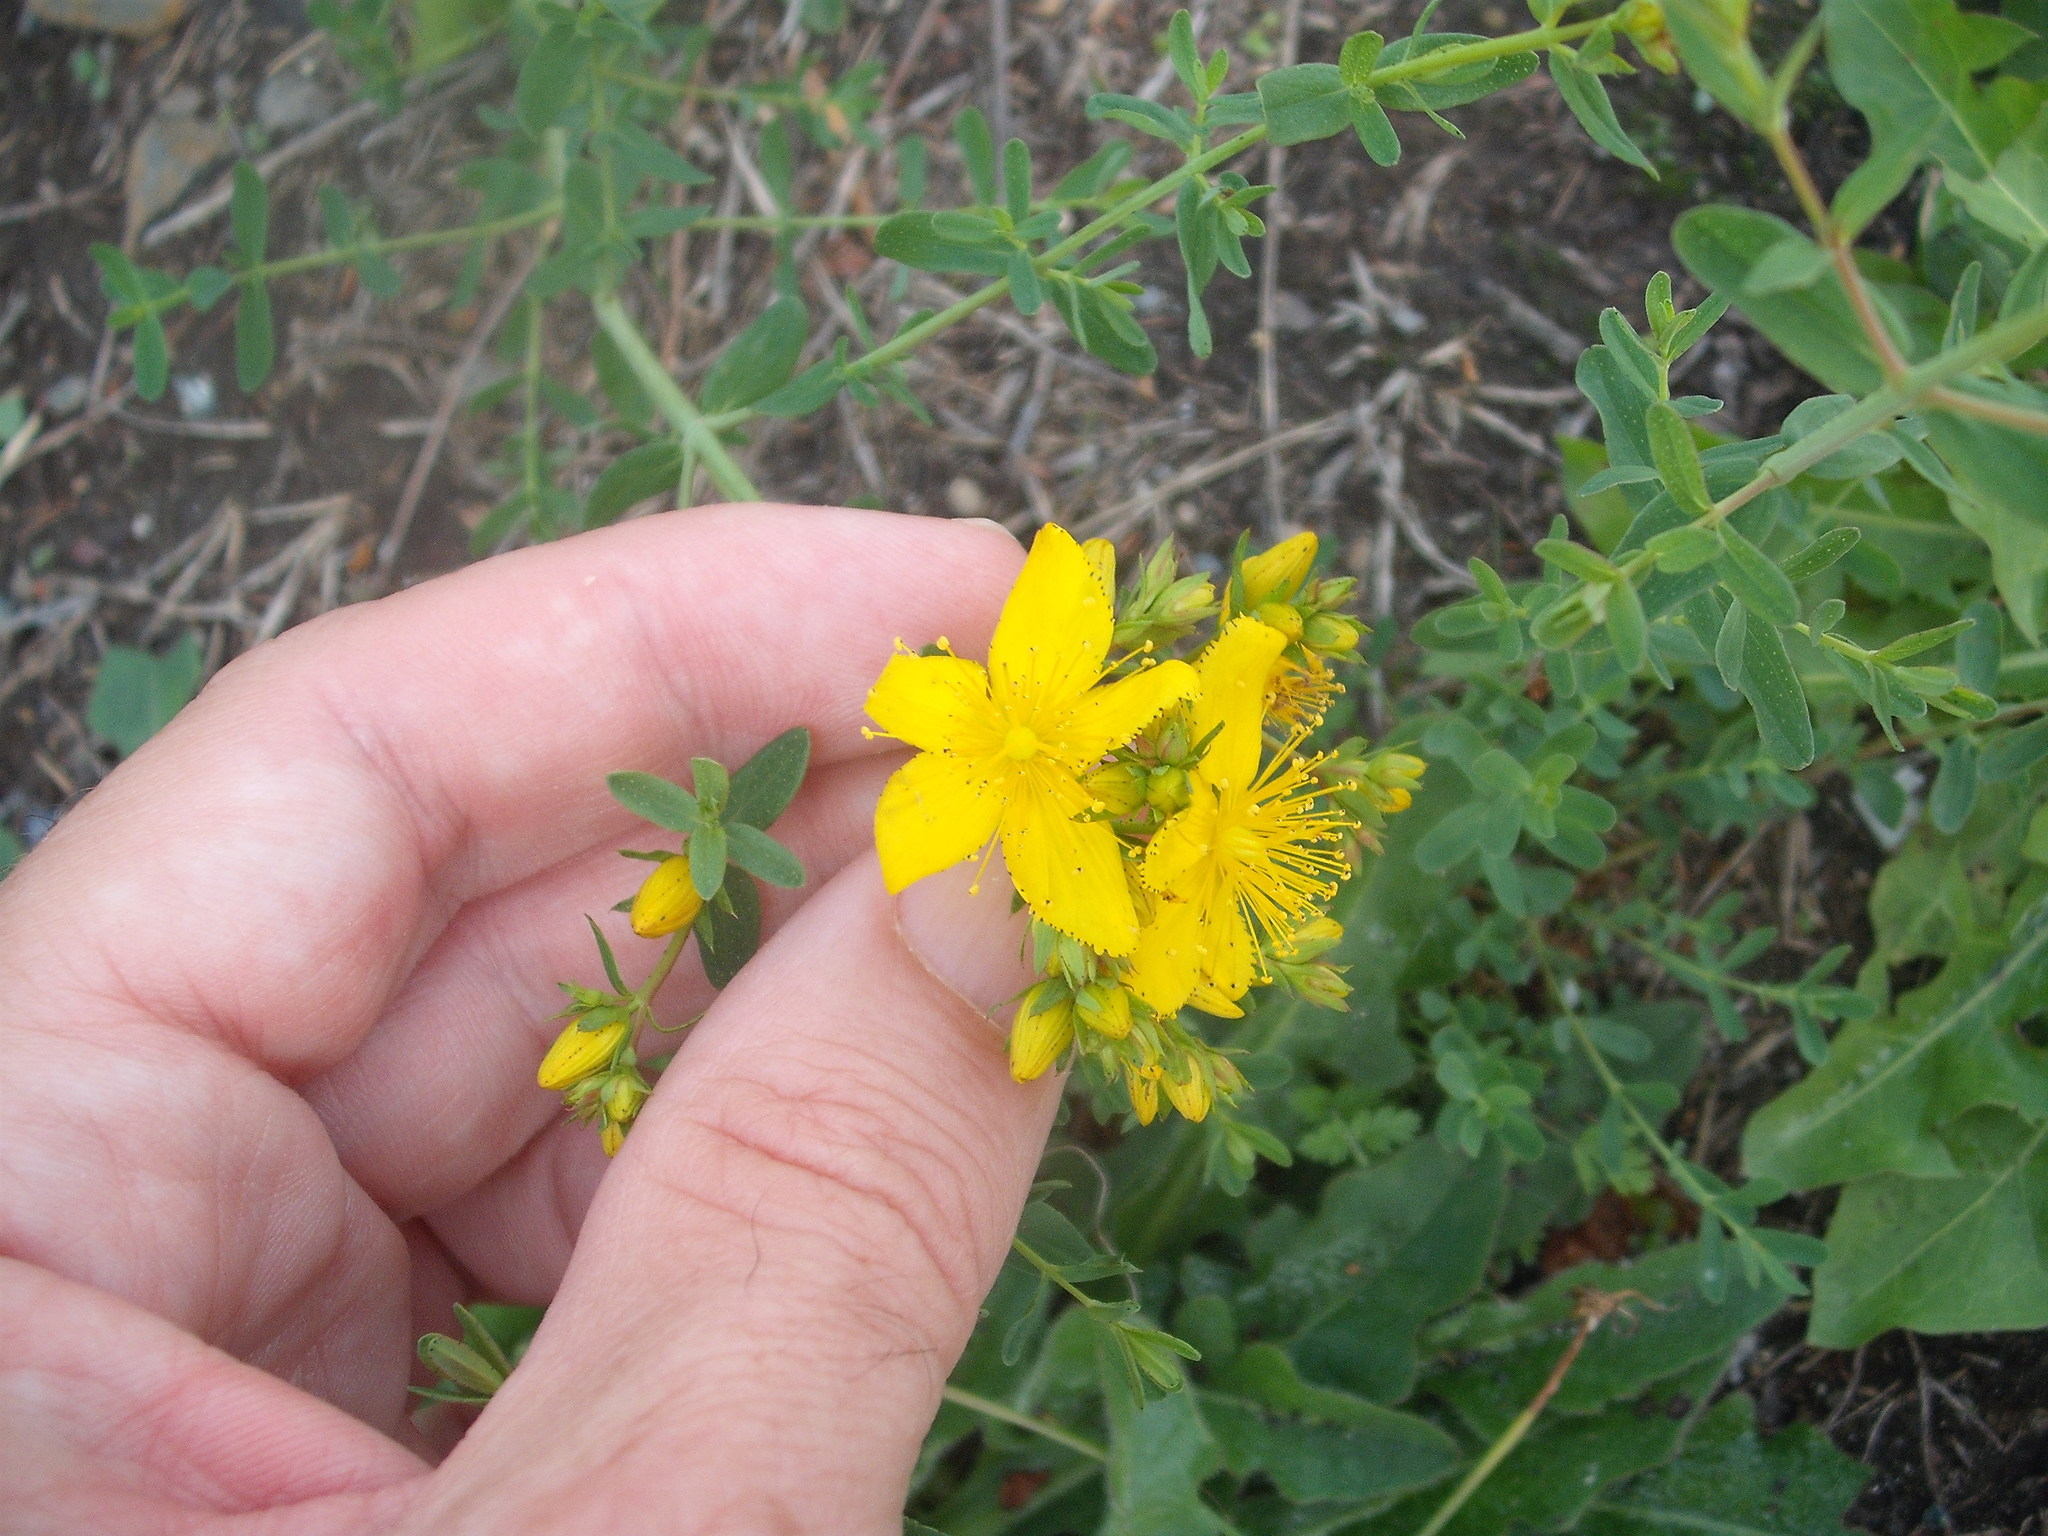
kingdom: Plantae
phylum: Tracheophyta
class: Magnoliopsida
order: Malpighiales
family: Hypericaceae
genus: Hypericum
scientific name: Hypericum perforatum
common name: Common st. johnswort
